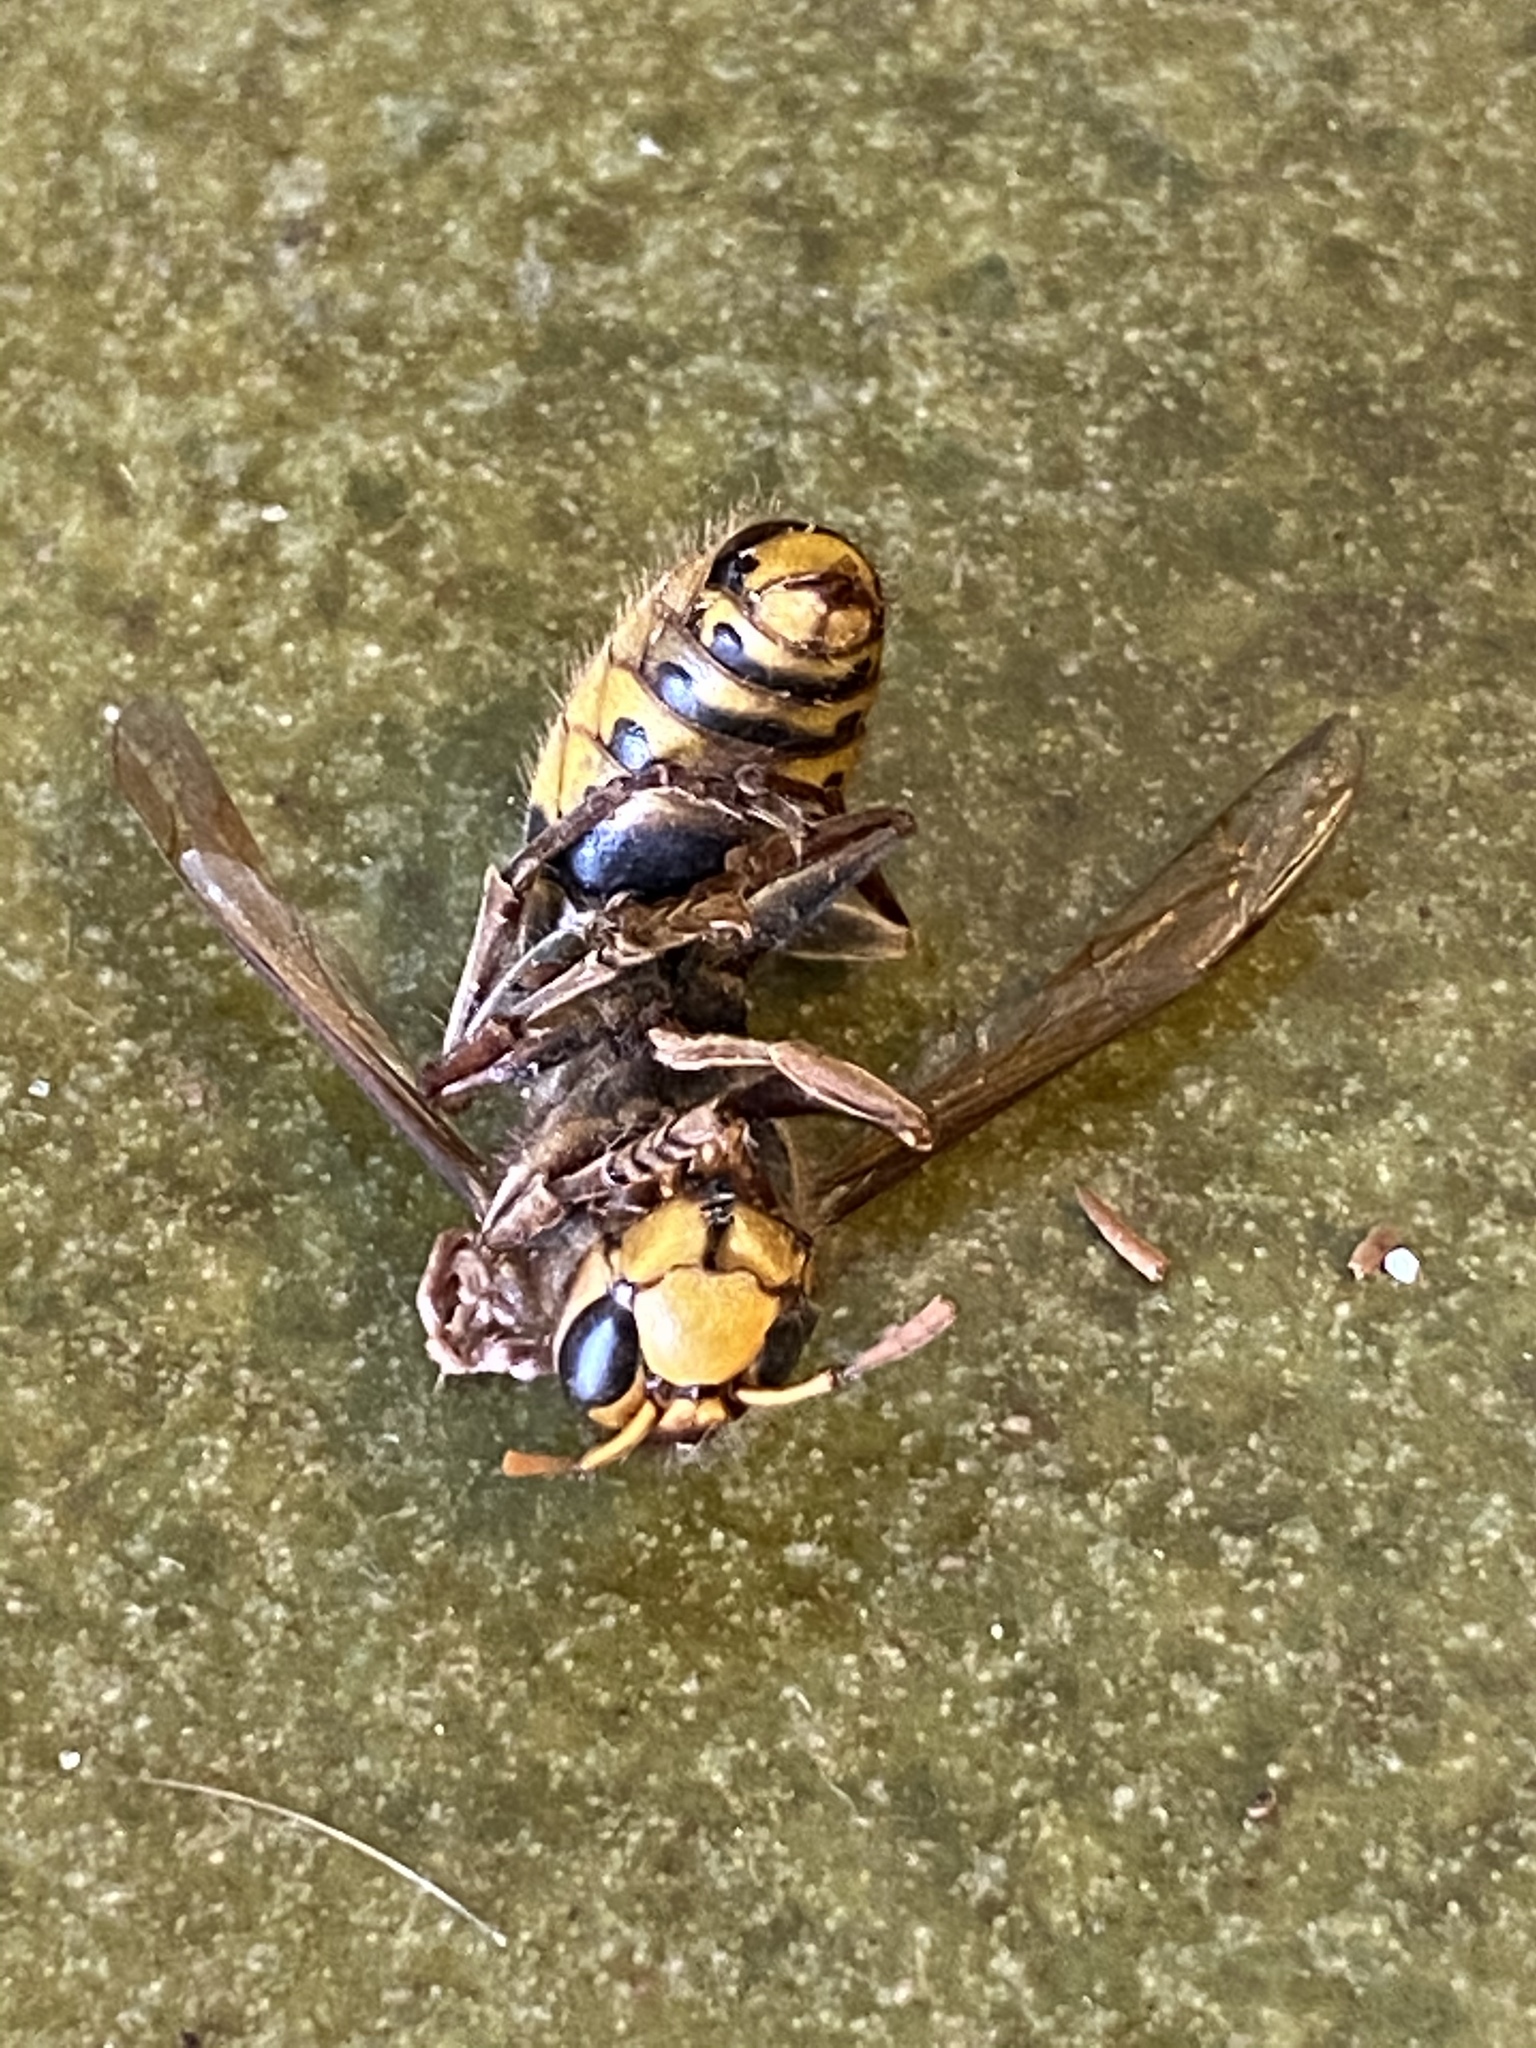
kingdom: Animalia
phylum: Arthropoda
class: Insecta
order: Hymenoptera
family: Vespidae
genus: Vespa
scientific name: Vespa crabro
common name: Hornet
